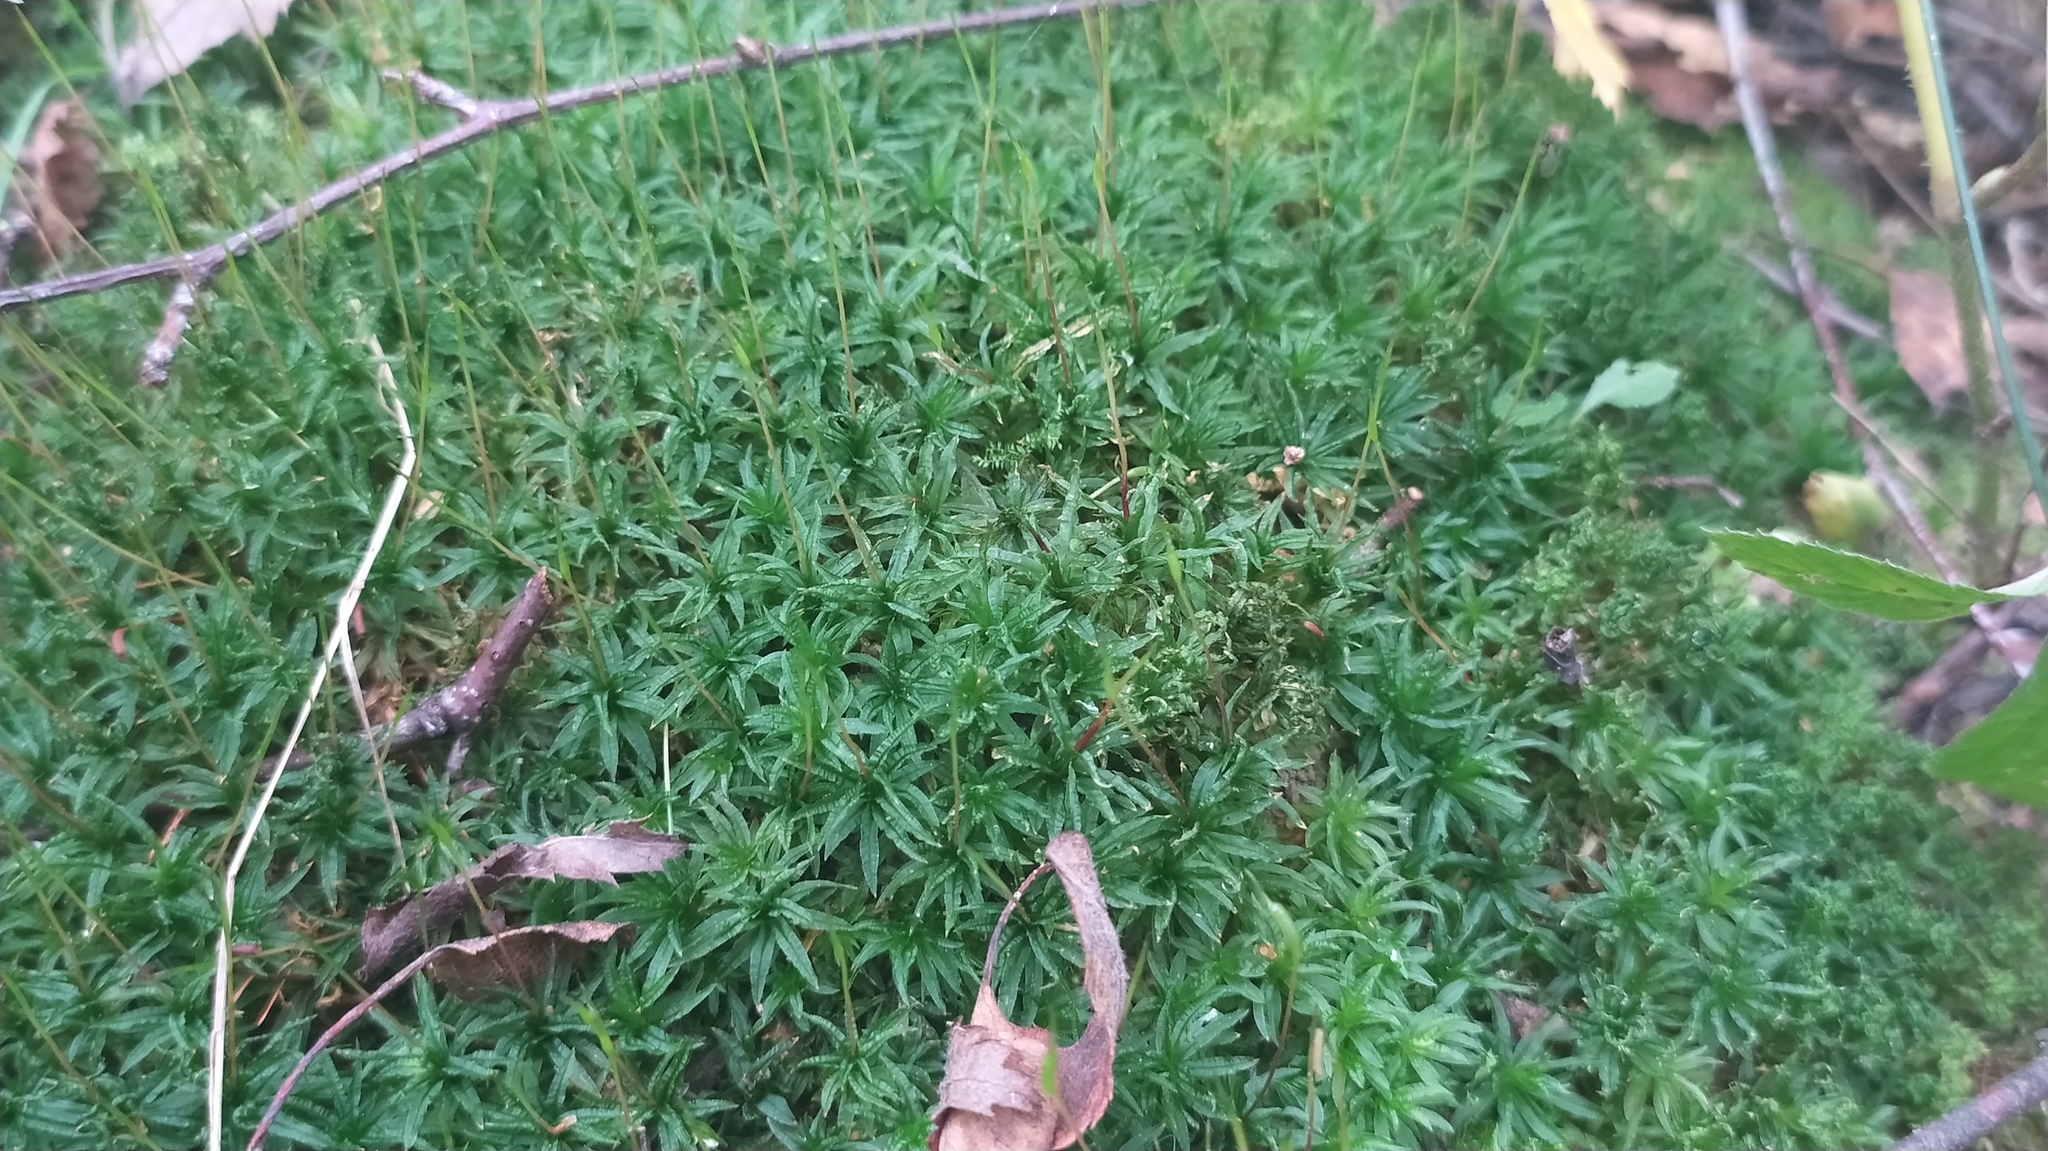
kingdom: Plantae
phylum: Bryophyta
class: Polytrichopsida
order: Polytrichales
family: Polytrichaceae
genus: Atrichum
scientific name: Atrichum undulatum
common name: Common smoothcap
